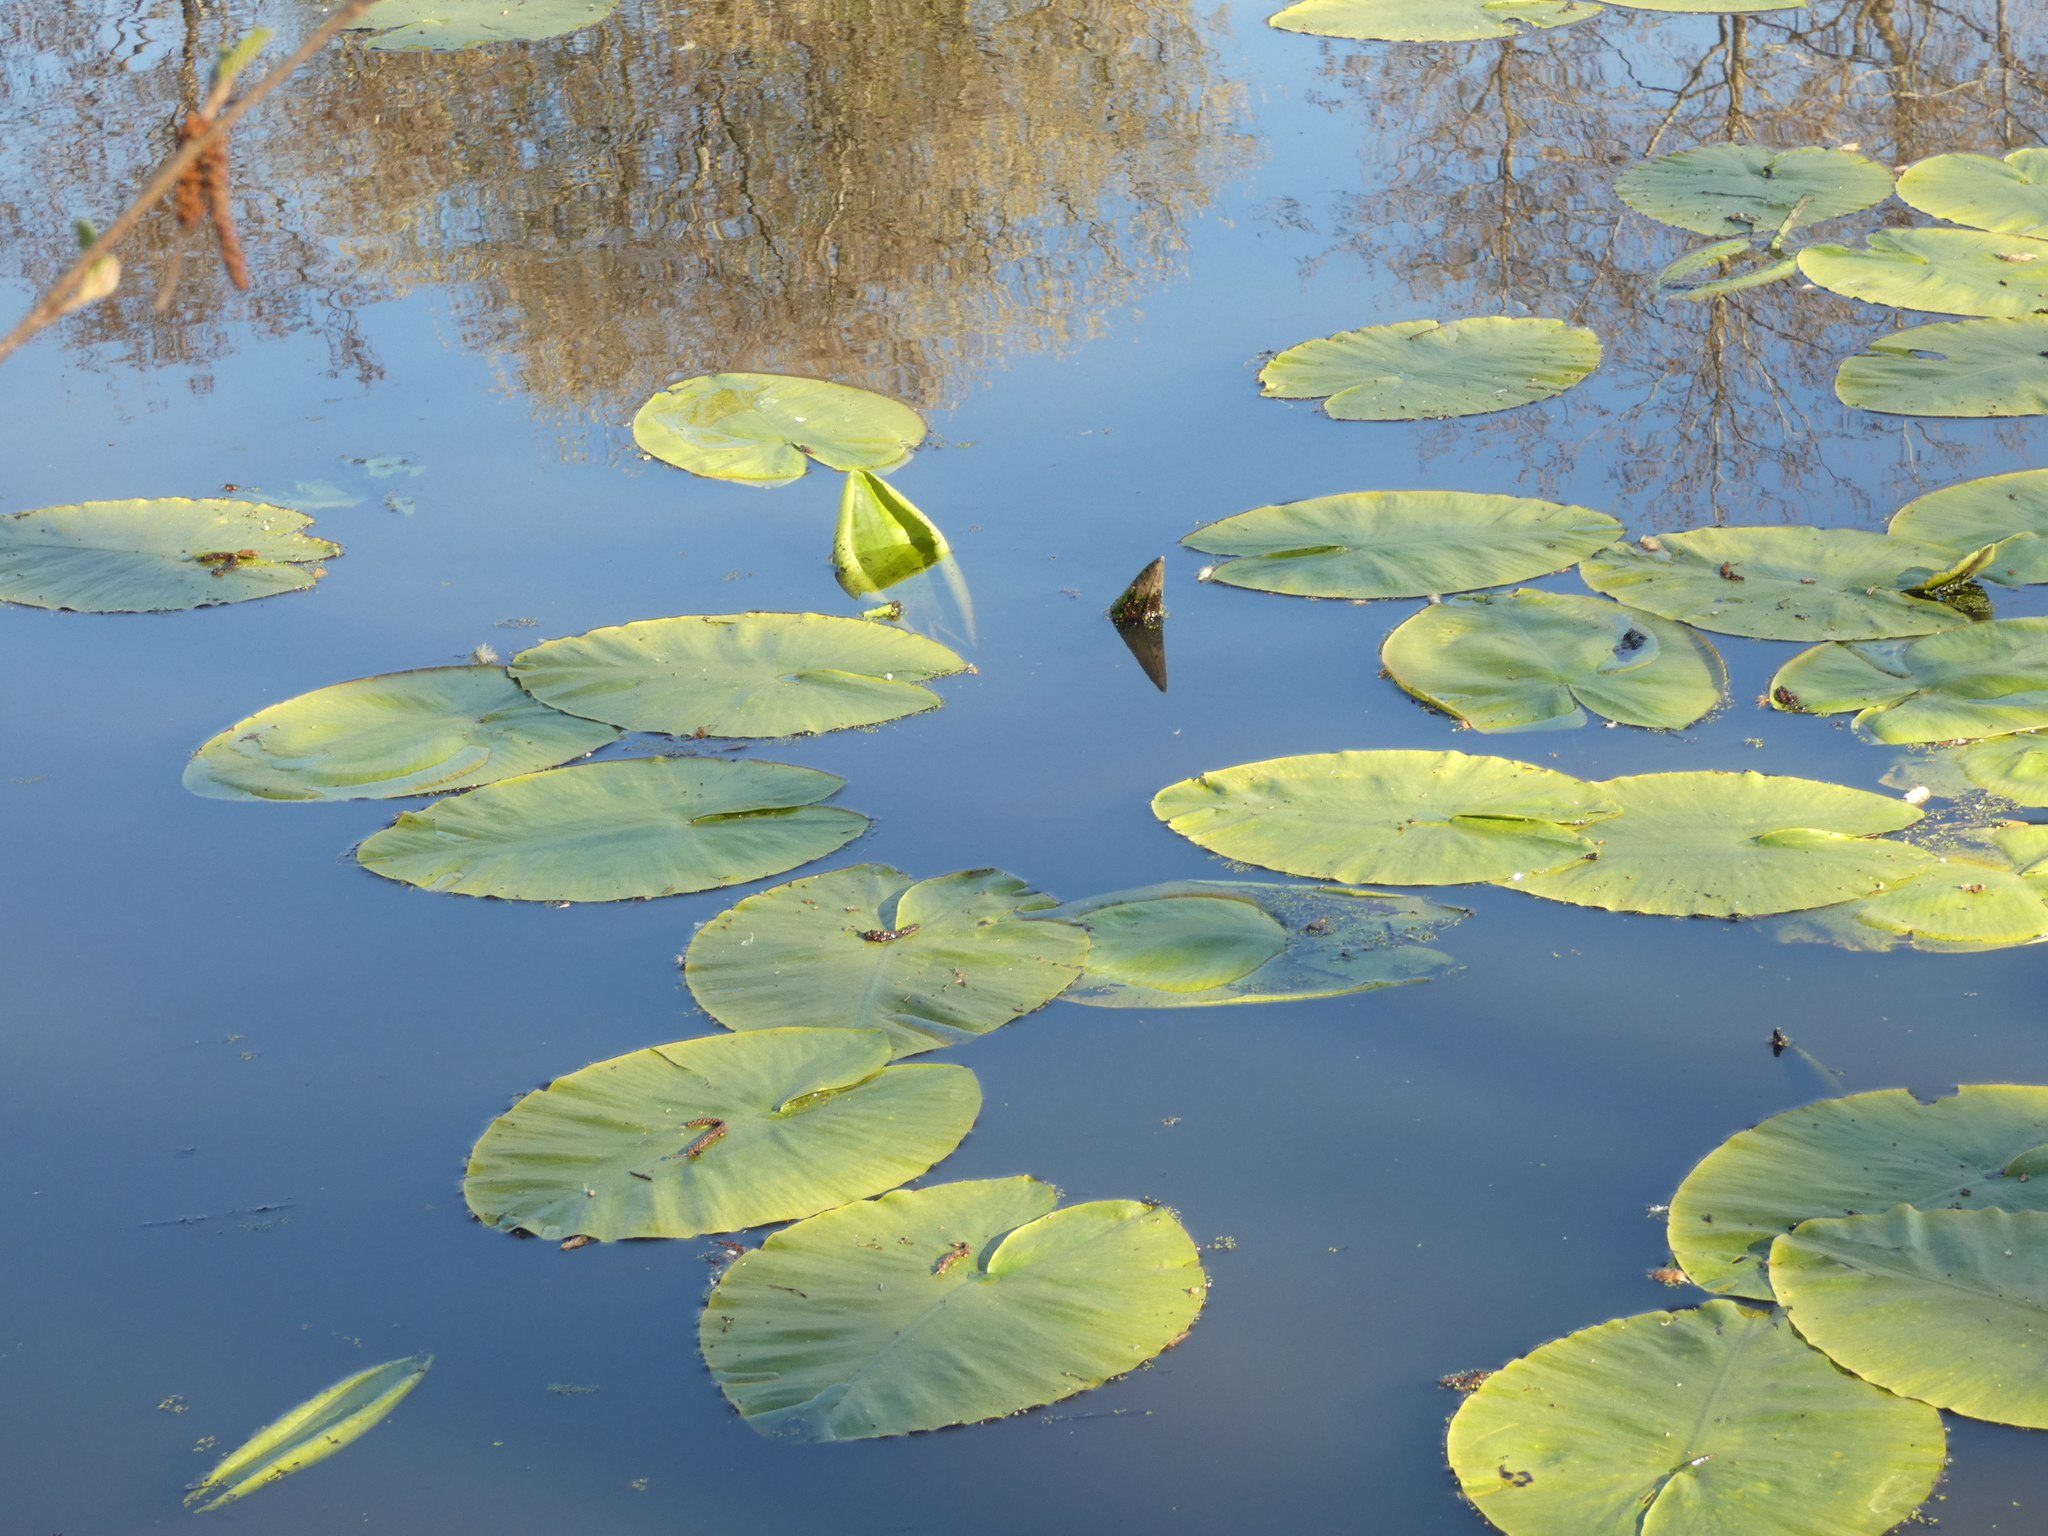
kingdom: Plantae
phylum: Tracheophyta
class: Magnoliopsida
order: Nymphaeales
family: Nymphaeaceae
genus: Nuphar
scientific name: Nuphar lutea
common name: Yellow water-lily
